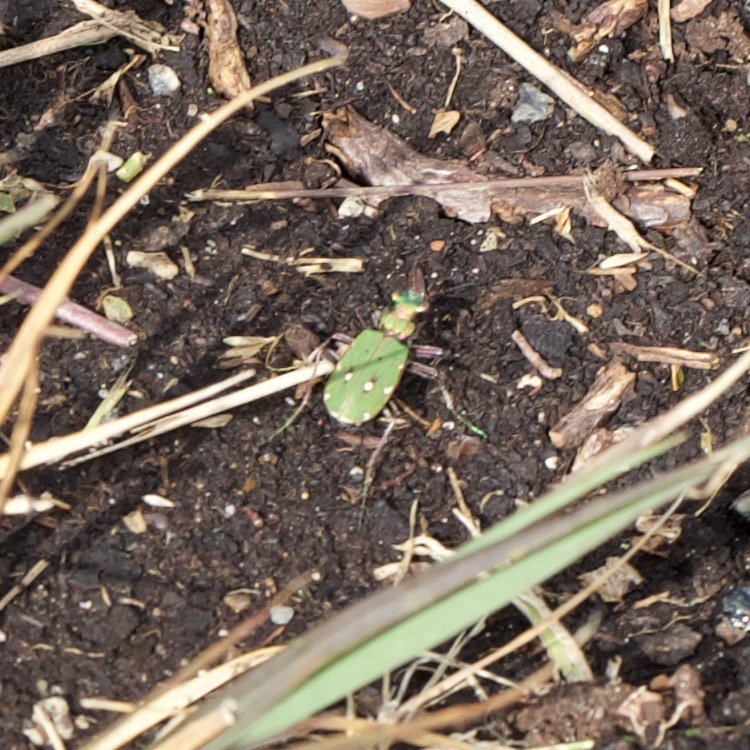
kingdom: Animalia
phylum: Arthropoda
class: Insecta
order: Coleoptera
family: Carabidae
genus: Cicindela
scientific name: Cicindela campestris
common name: Common tiger beetle
